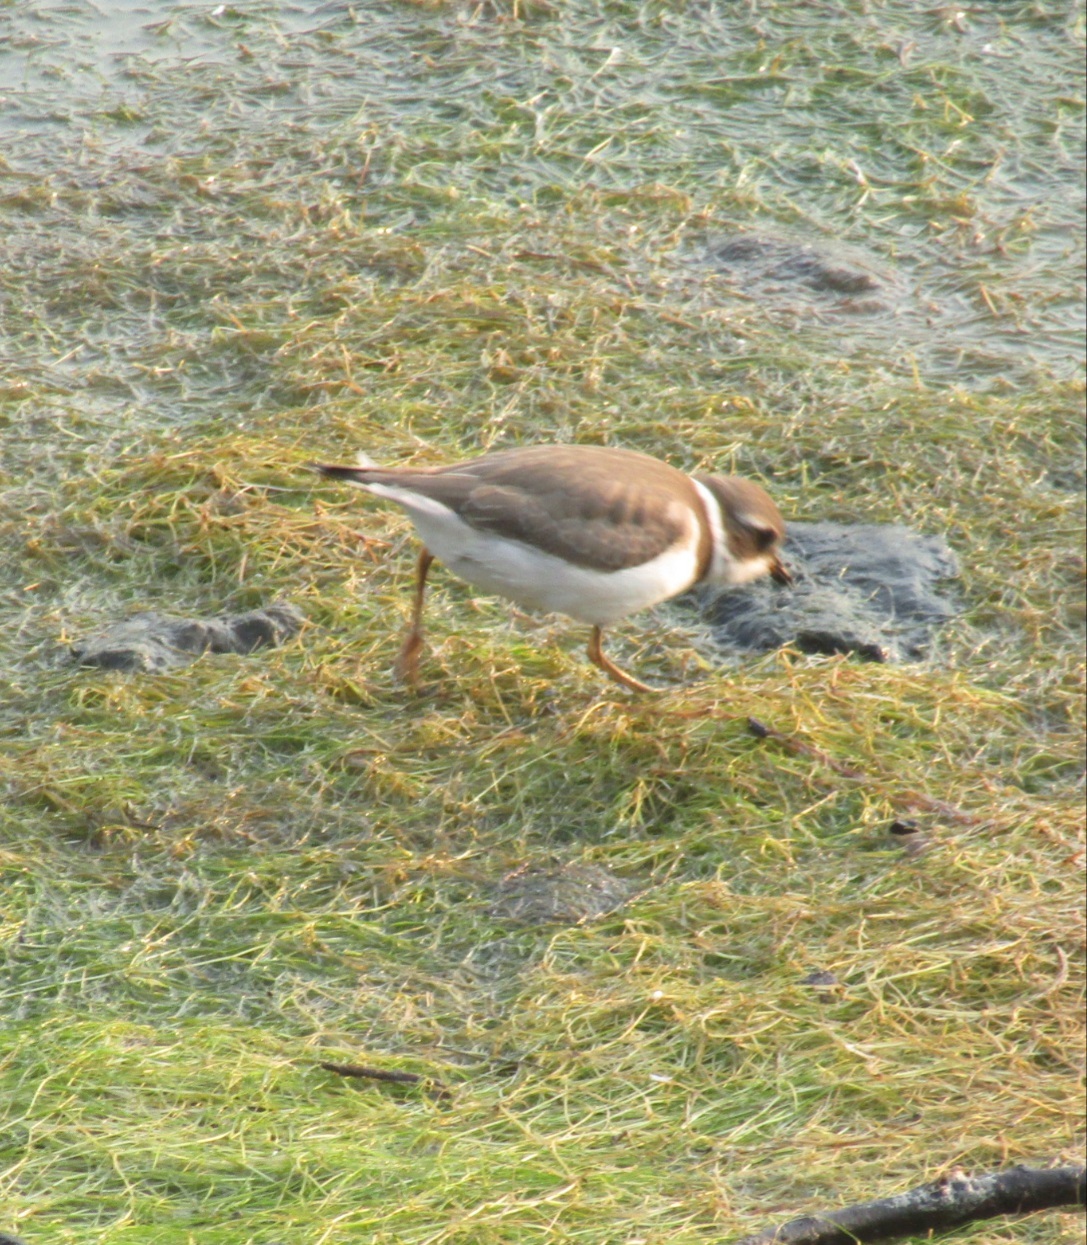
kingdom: Animalia
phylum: Chordata
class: Aves
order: Charadriiformes
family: Charadriidae
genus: Charadrius
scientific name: Charadrius semipalmatus
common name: Semipalmated plover
